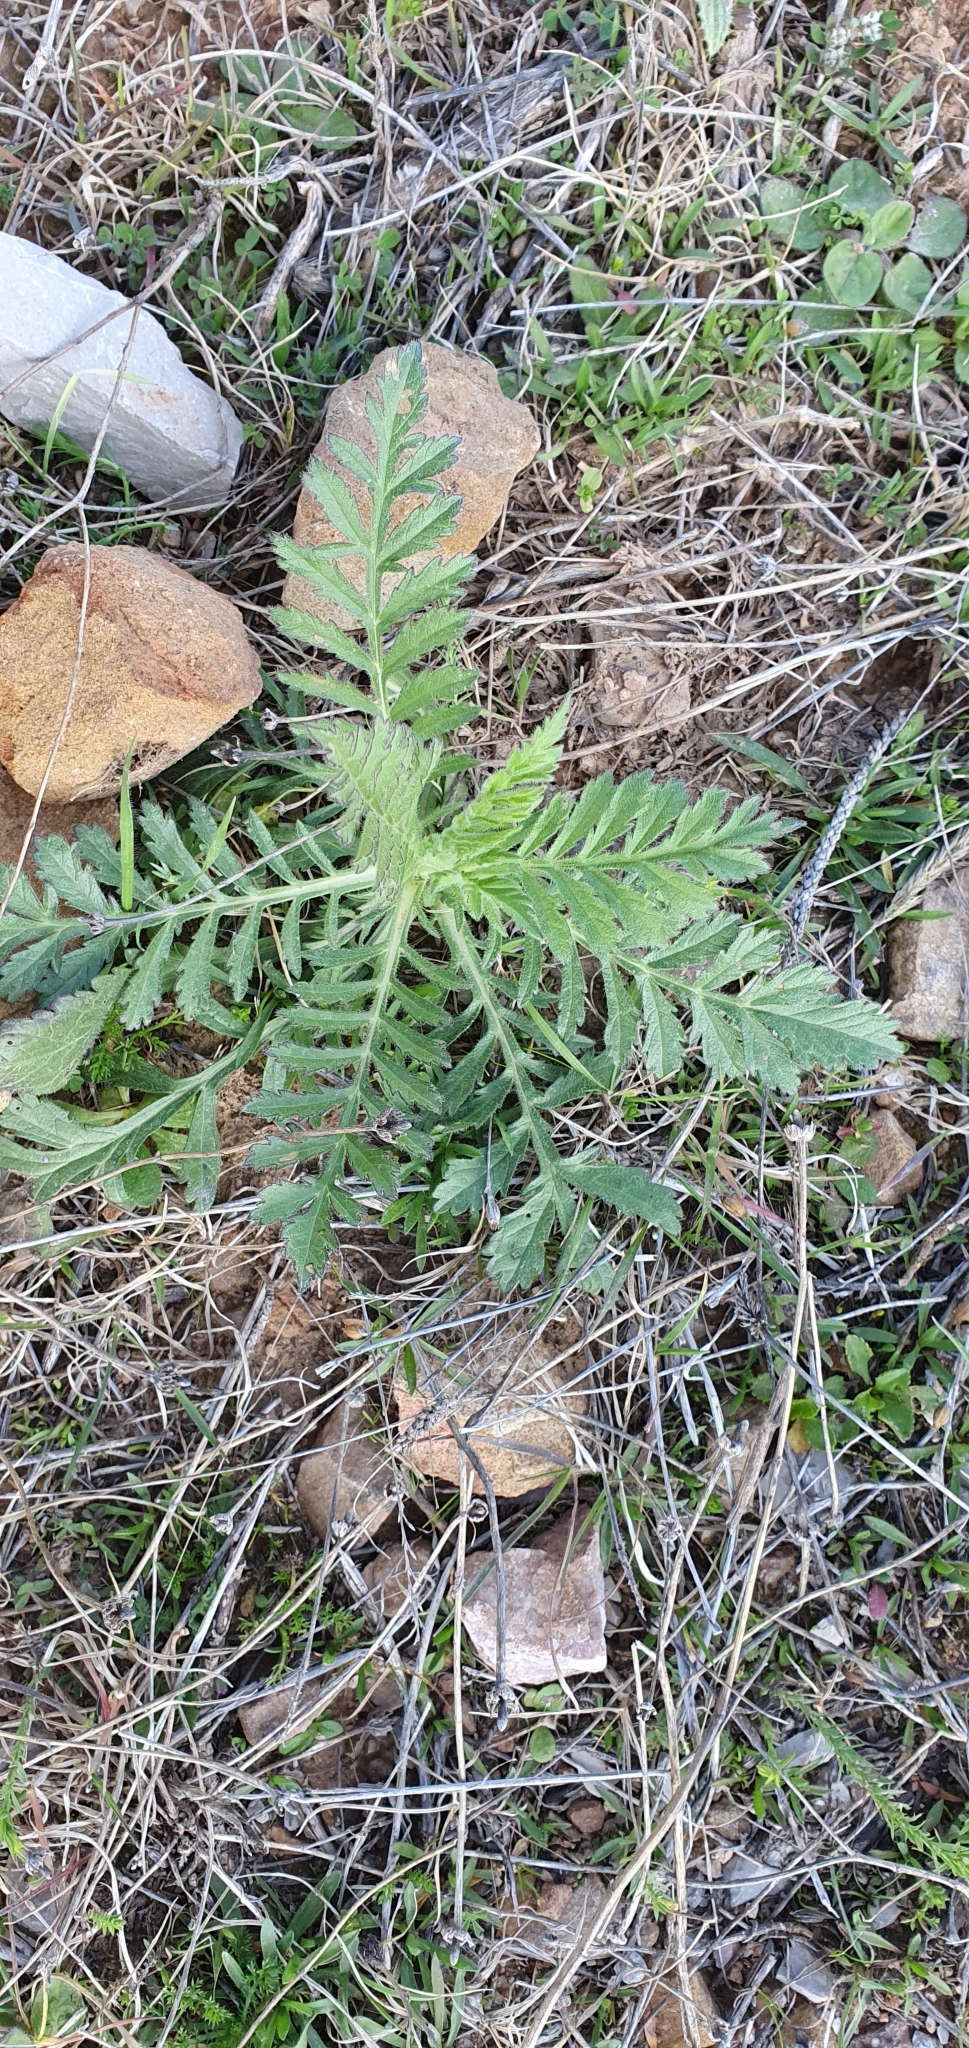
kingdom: Plantae
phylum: Tracheophyta
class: Magnoliopsida
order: Dipsacales
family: Caprifoliaceae
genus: Sixalix
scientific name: Sixalix maritima
